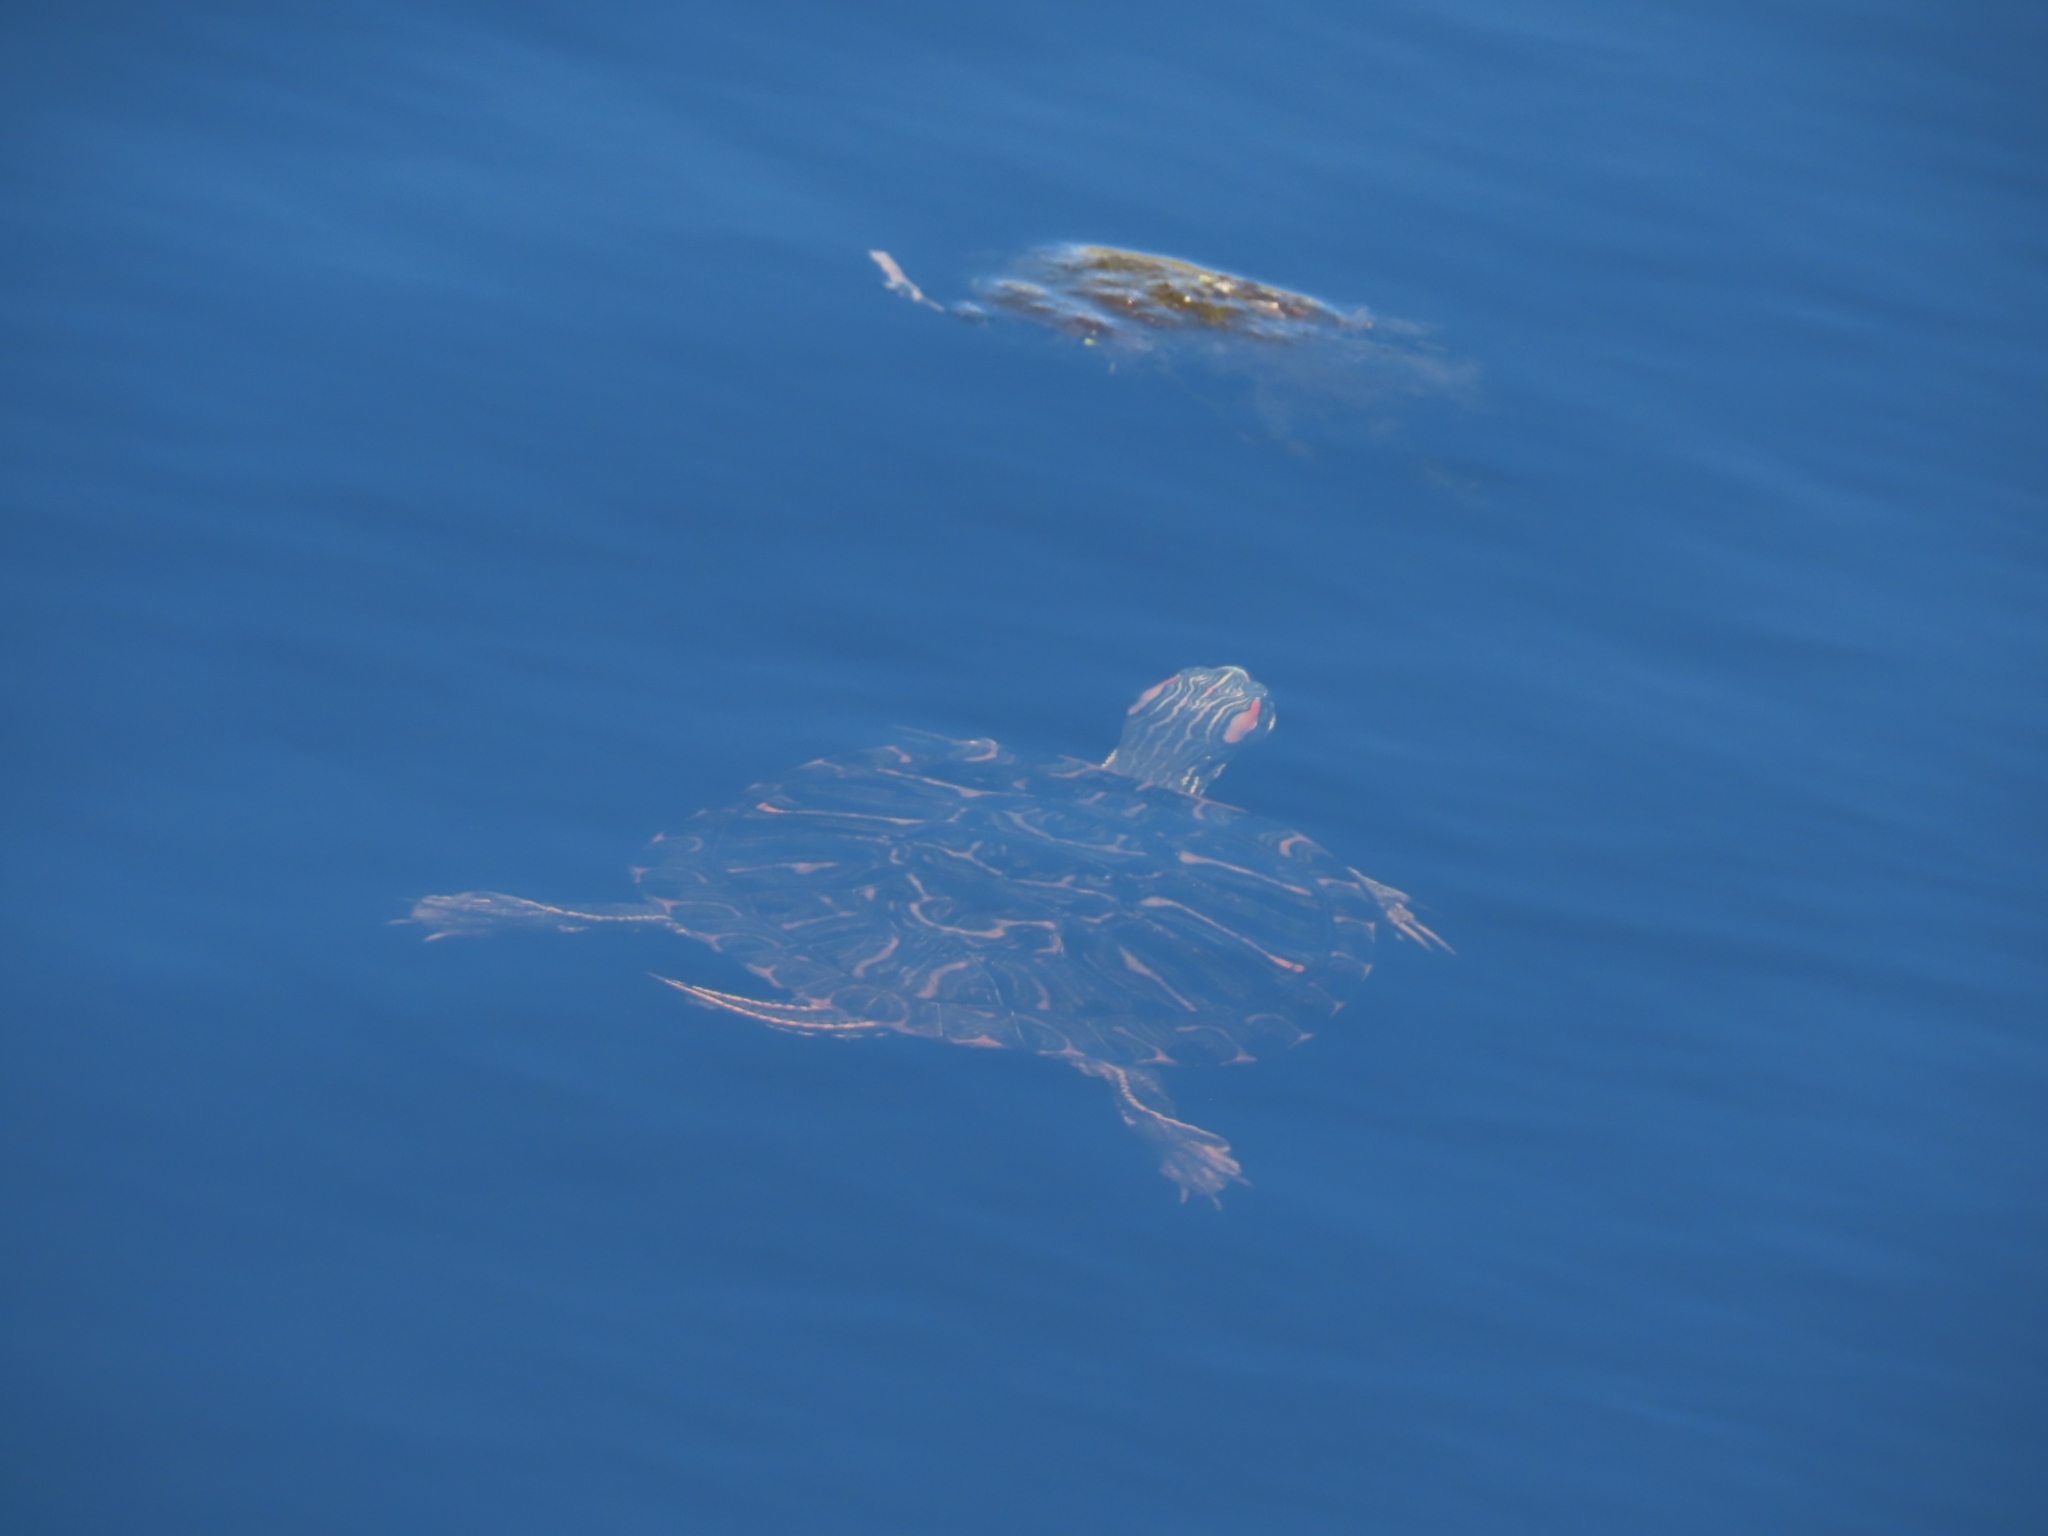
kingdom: Animalia
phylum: Chordata
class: Testudines
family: Emydidae
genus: Trachemys
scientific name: Trachemys scripta
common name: Slider
